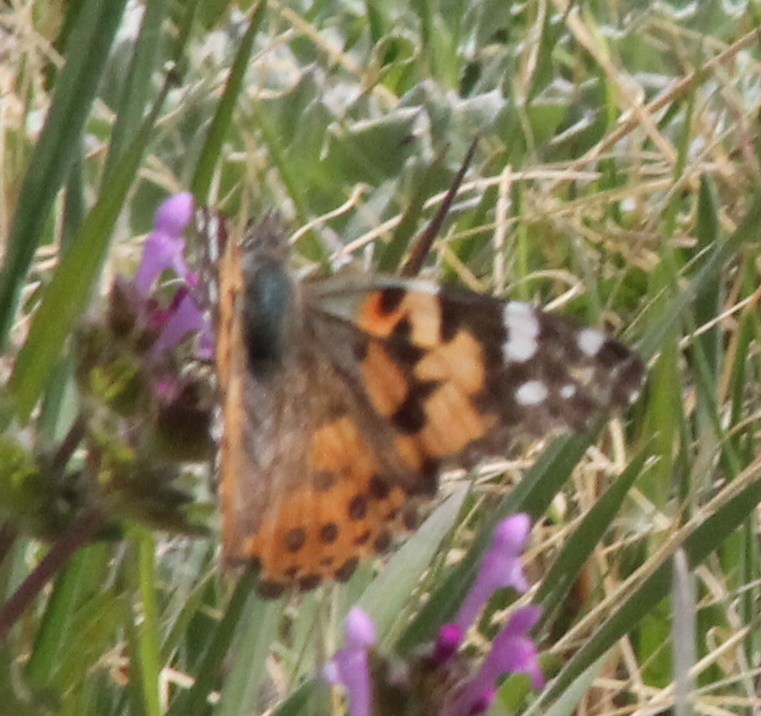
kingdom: Animalia
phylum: Arthropoda
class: Insecta
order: Lepidoptera
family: Nymphalidae
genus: Vanessa
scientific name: Vanessa cardui
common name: Painted lady
